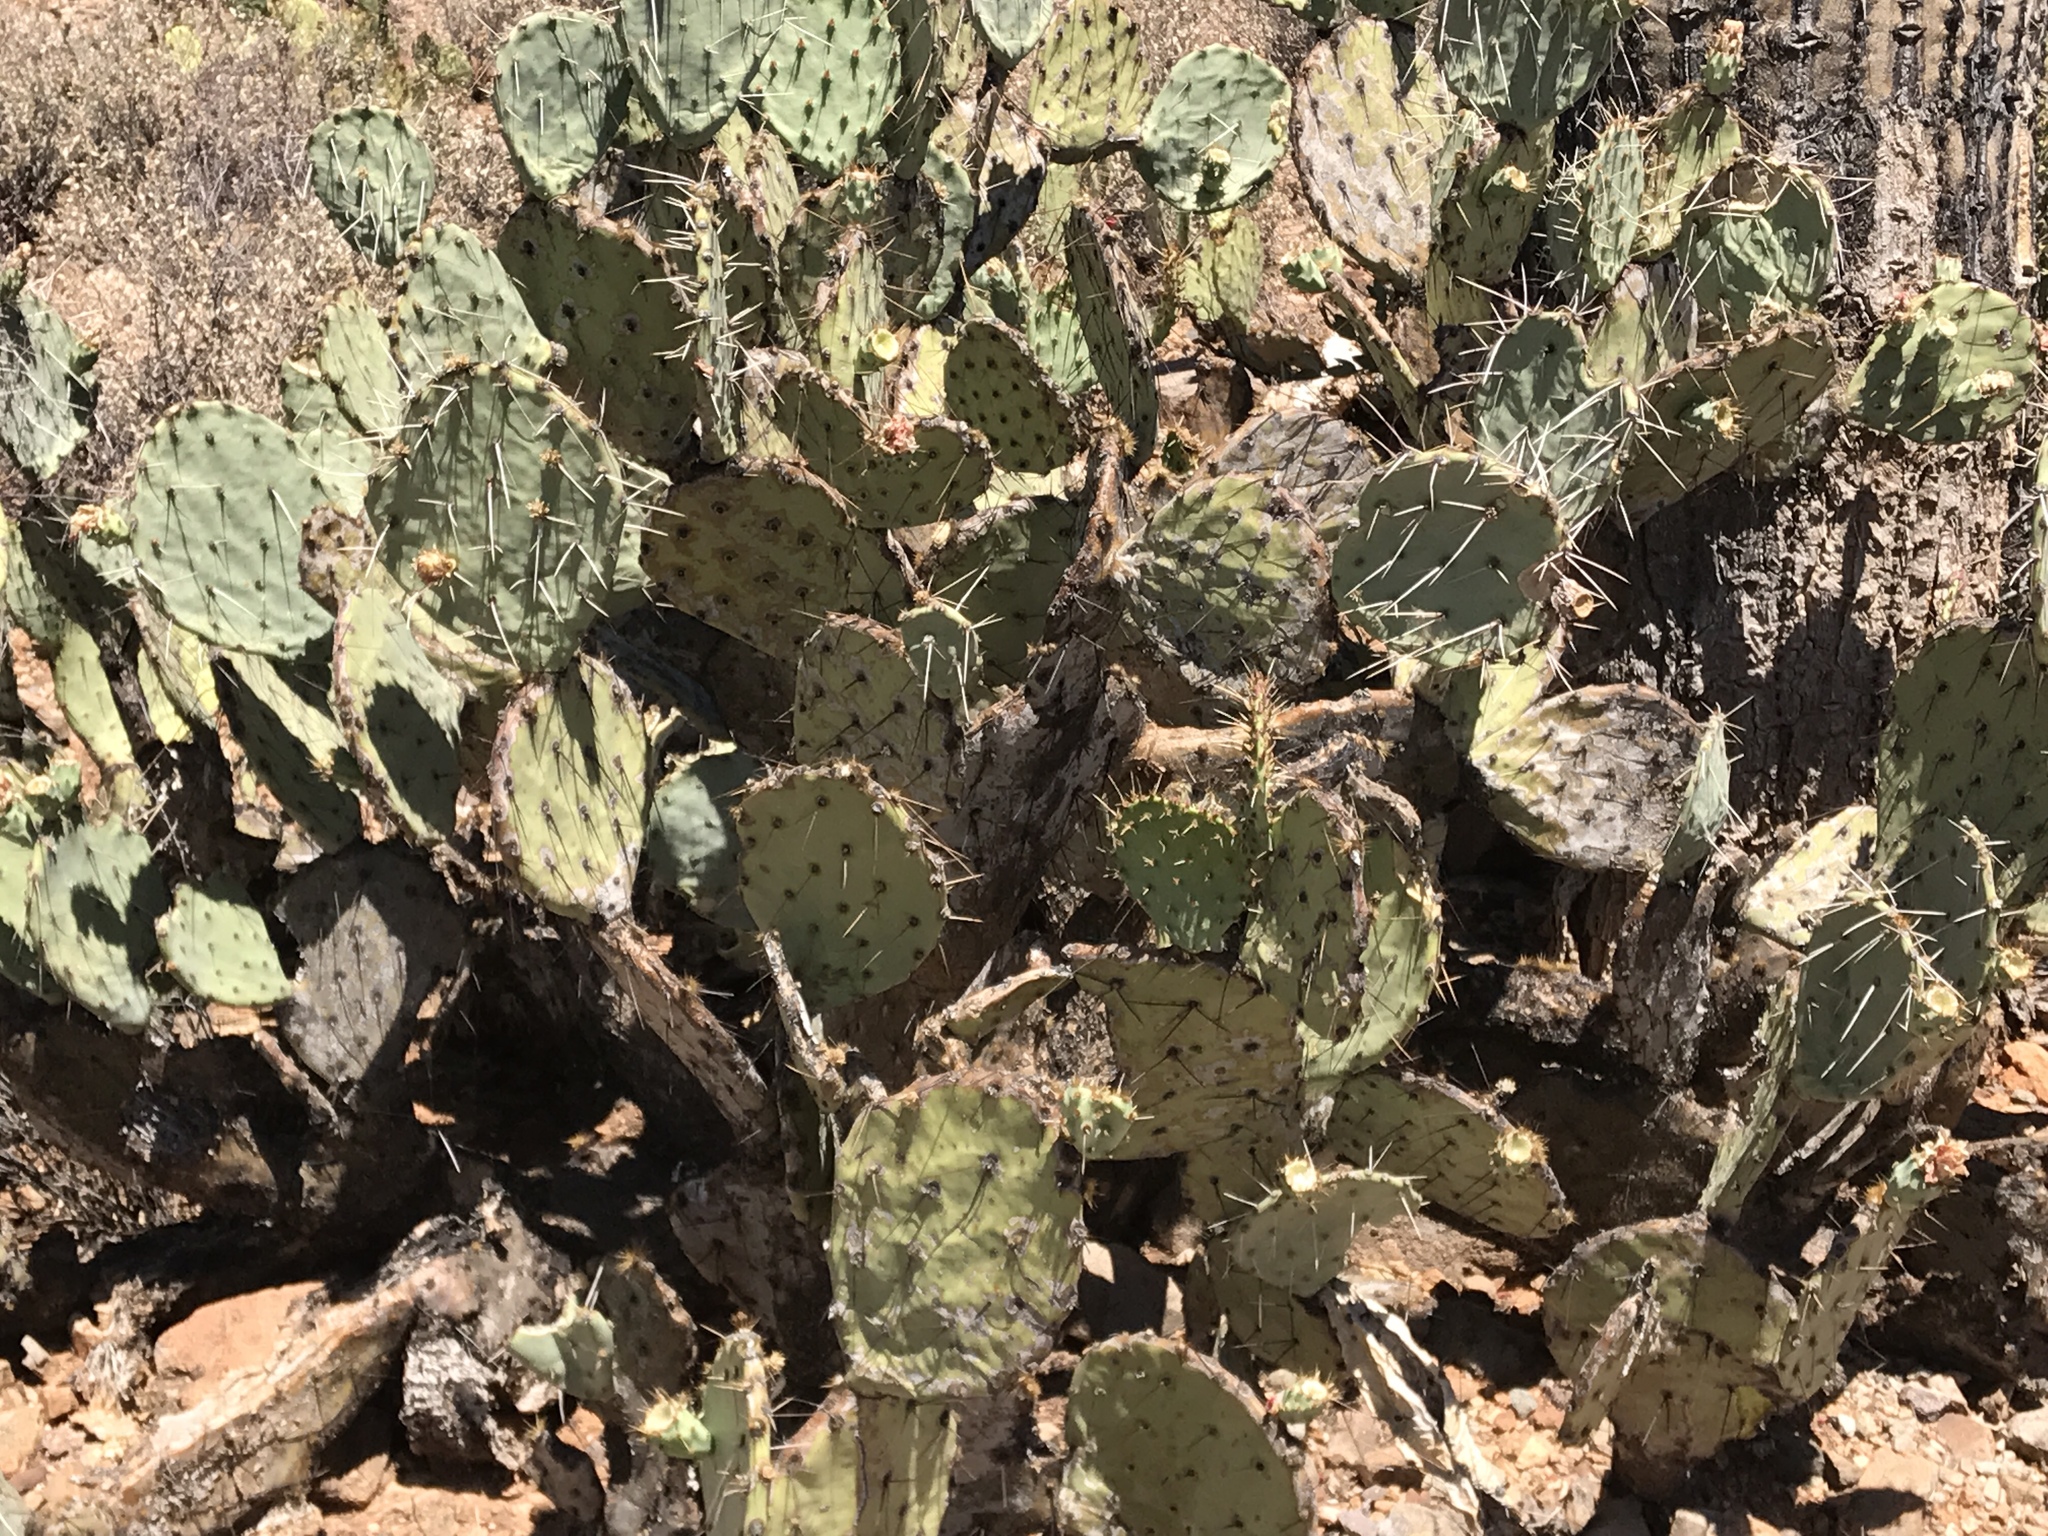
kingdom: Plantae
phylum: Tracheophyta
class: Magnoliopsida
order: Caryophyllales
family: Cactaceae
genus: Opuntia
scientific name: Opuntia engelmannii
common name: Cactus-apple
